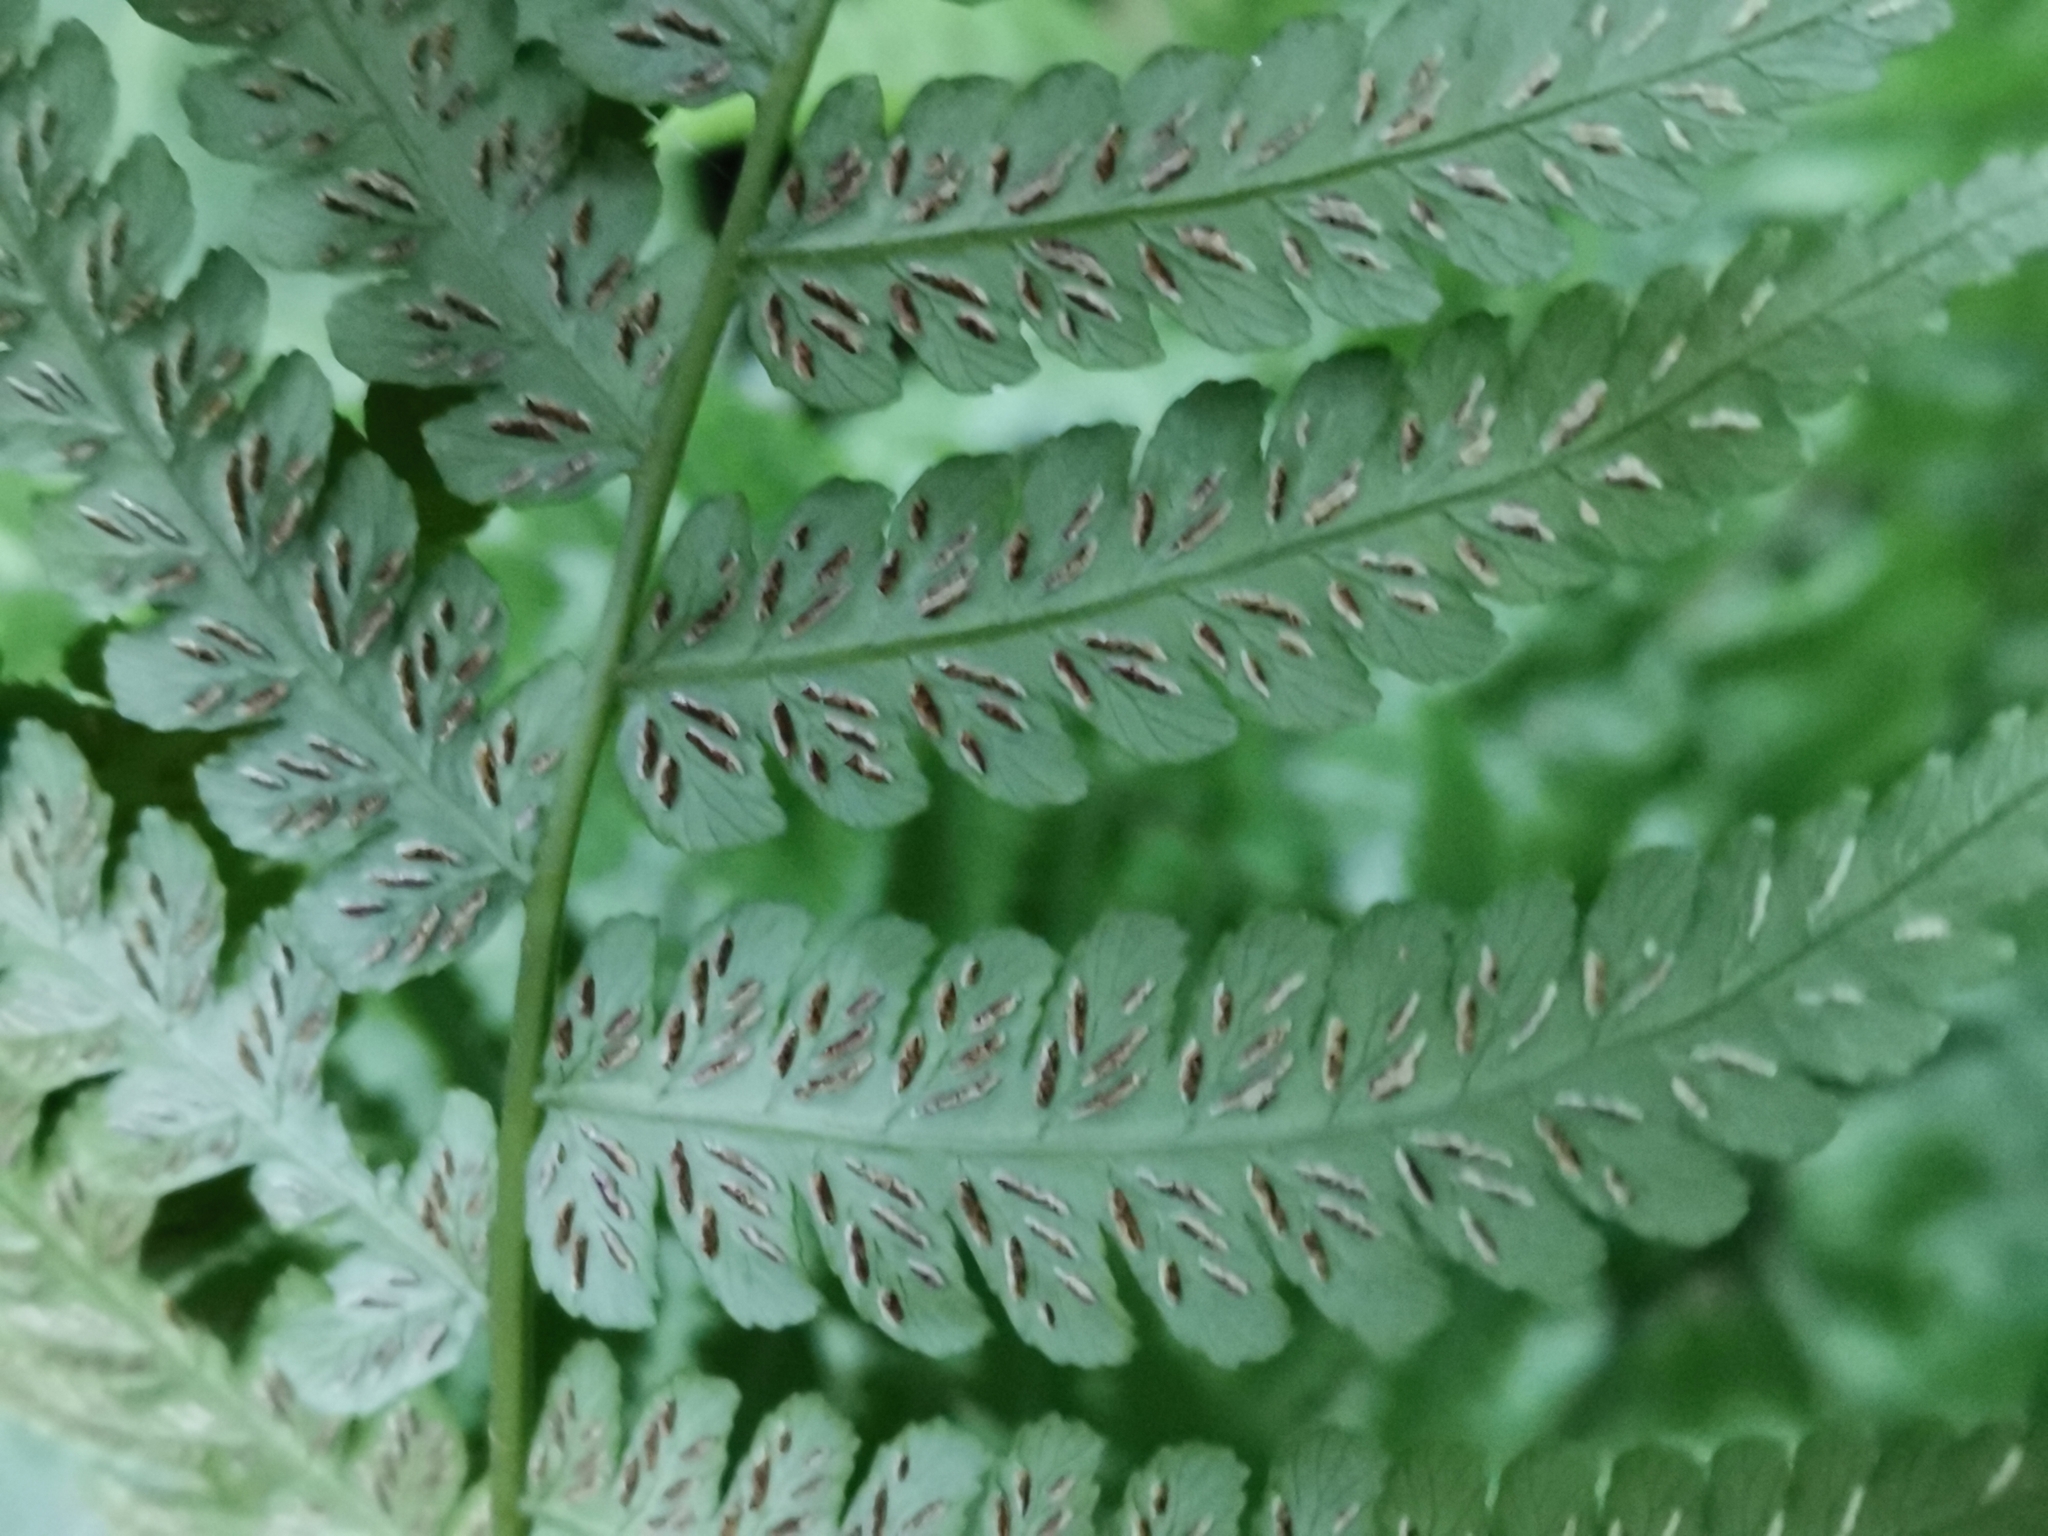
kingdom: Plantae
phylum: Tracheophyta
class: Polypodiopsida
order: Polypodiales
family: Athyriaceae
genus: Diplazium
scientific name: Diplazium hachijoense
